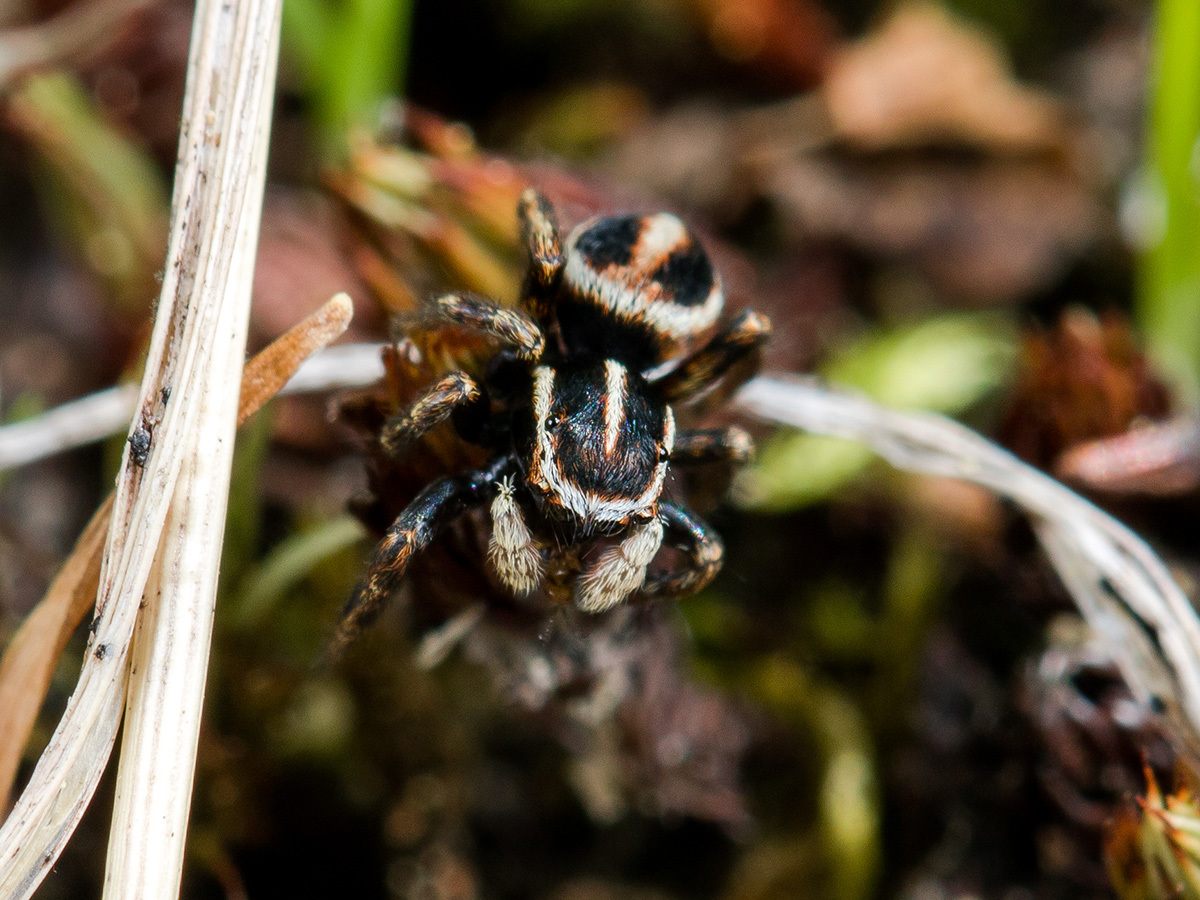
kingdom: Animalia
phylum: Arthropoda
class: Arachnida
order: Araneae
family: Salticidae
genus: Attulus
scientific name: Attulus talgarensis
